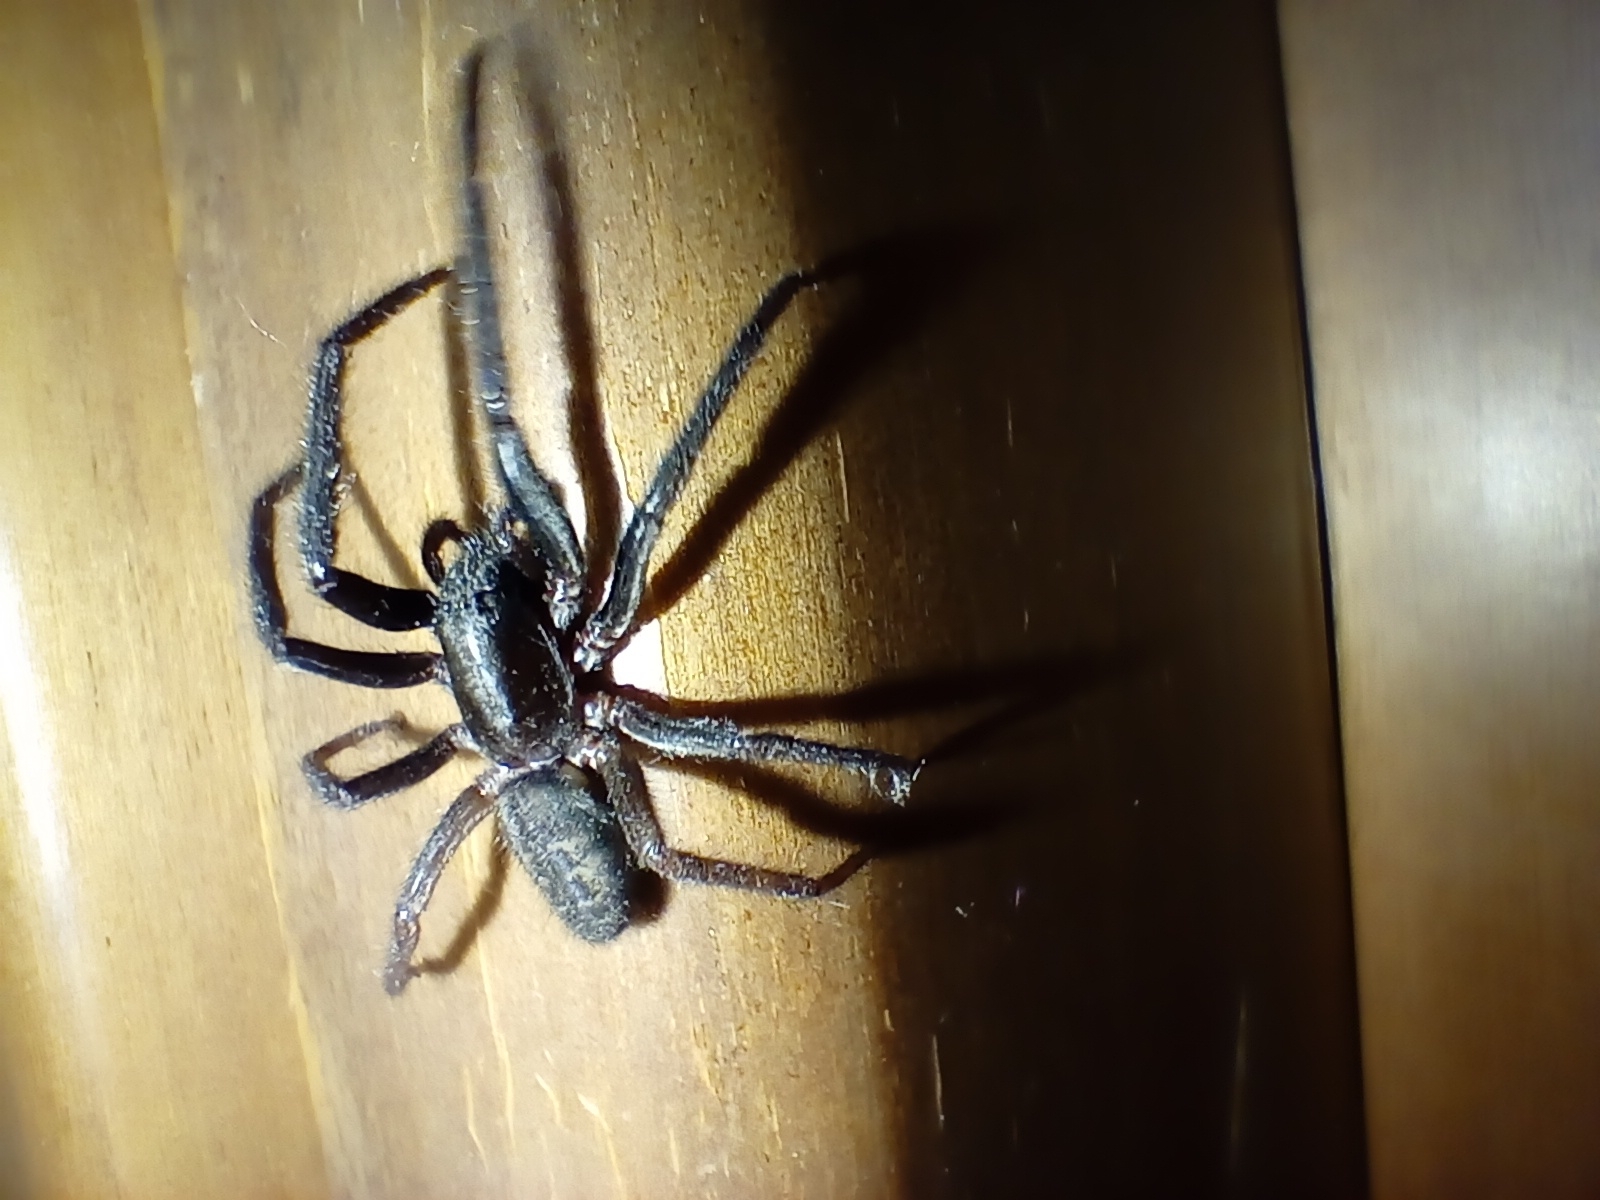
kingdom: Animalia
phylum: Arthropoda
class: Arachnida
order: Araneae
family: Segestriidae
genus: Segestria
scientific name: Segestria florentina
